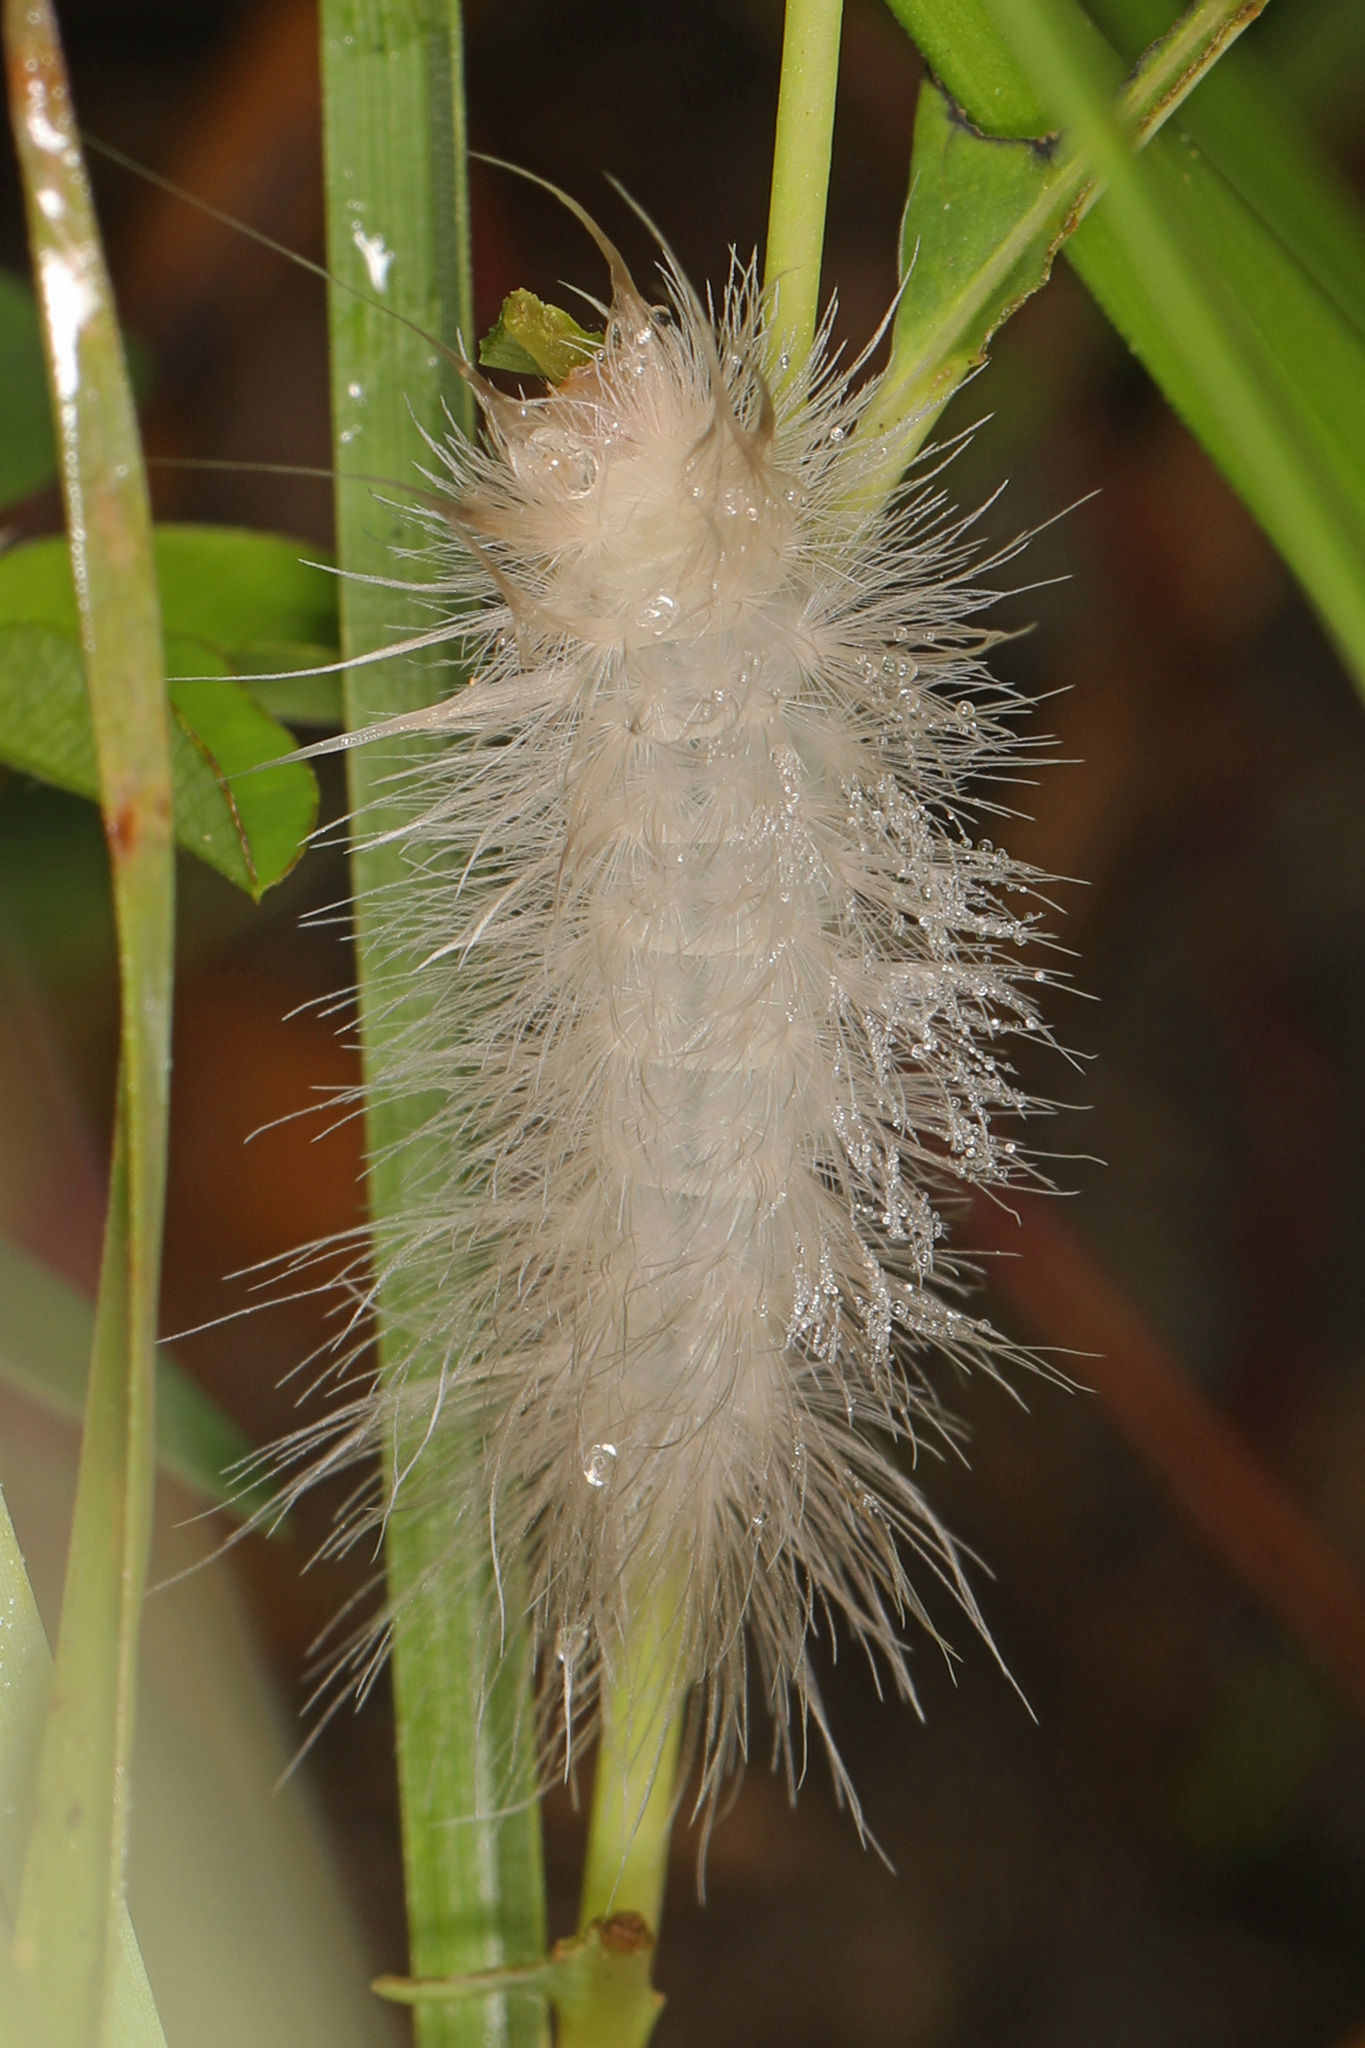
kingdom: Animalia
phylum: Arthropoda
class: Insecta
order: Lepidoptera
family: Erebidae
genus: Cycnia
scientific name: Cycnia tenera
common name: Delicate cycnia moth
